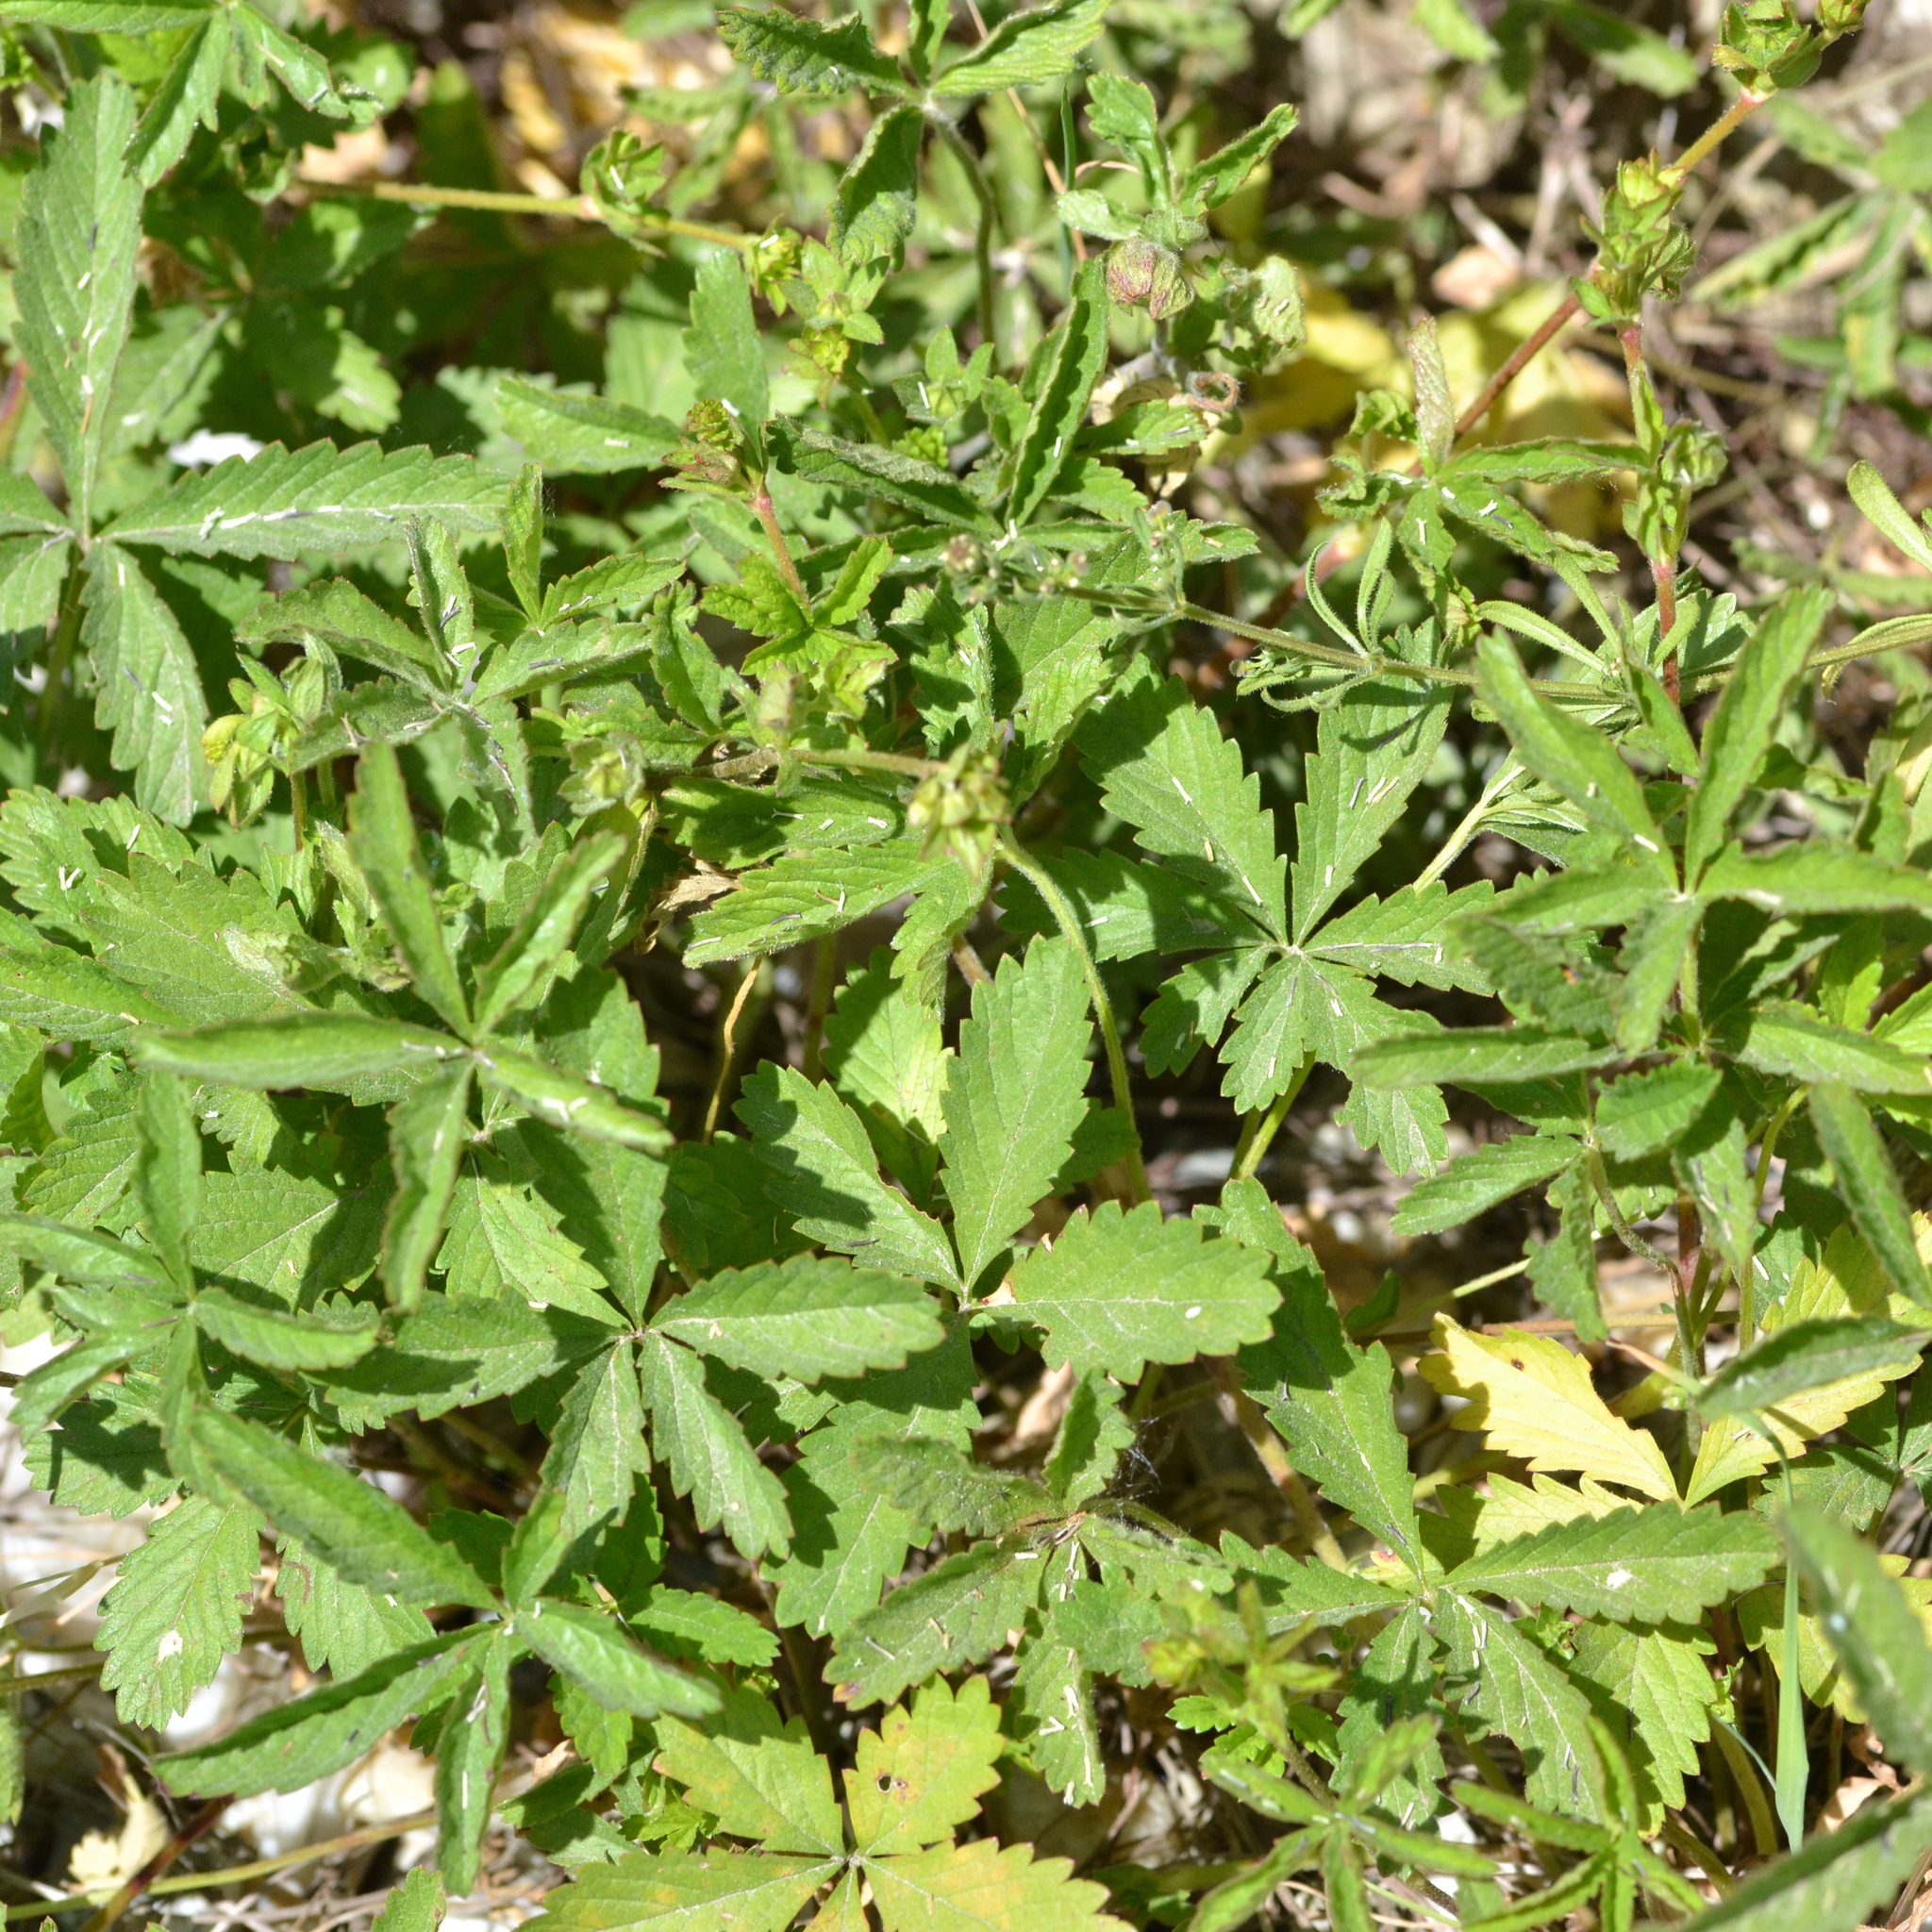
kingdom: Plantae
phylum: Tracheophyta
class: Magnoliopsida
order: Rosales
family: Rosaceae
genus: Potentilla
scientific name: Potentilla reptans
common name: Creeping cinquefoil
